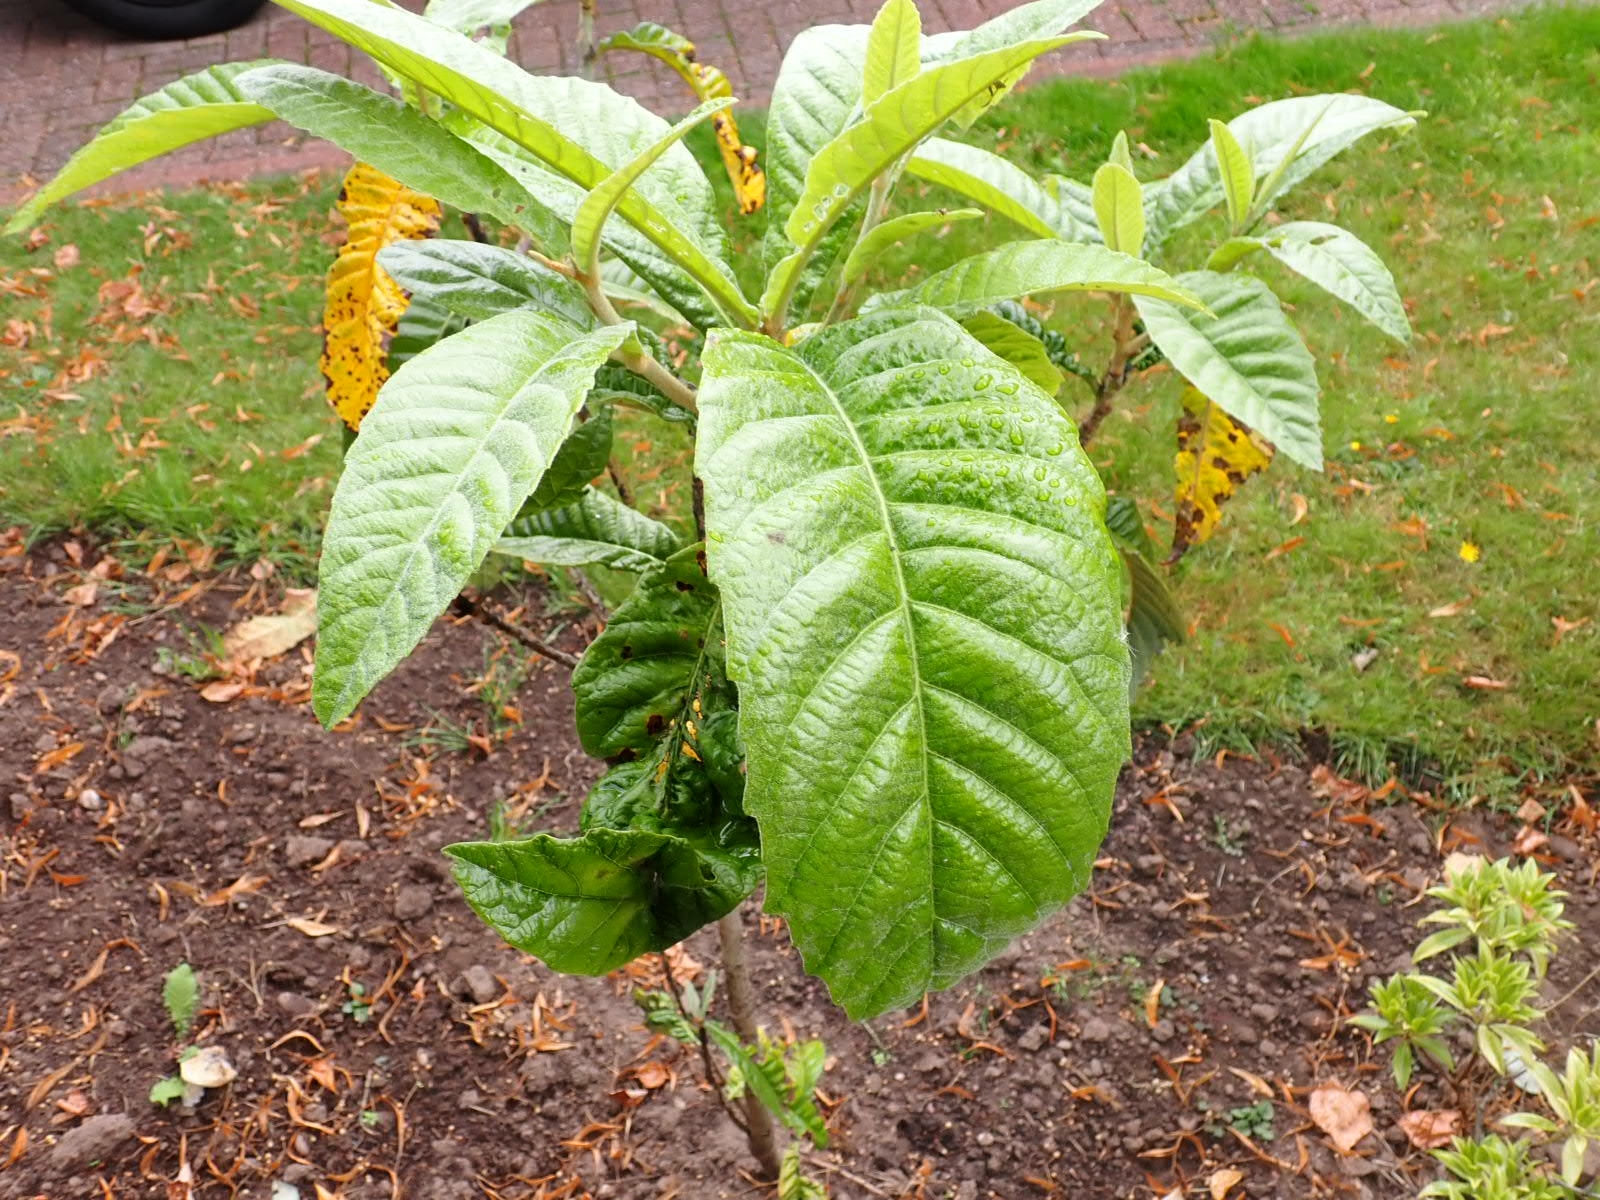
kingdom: Plantae
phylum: Tracheophyta
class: Magnoliopsida
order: Rosales
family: Rosaceae
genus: Rhaphiolepis
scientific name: Rhaphiolepis bibas
